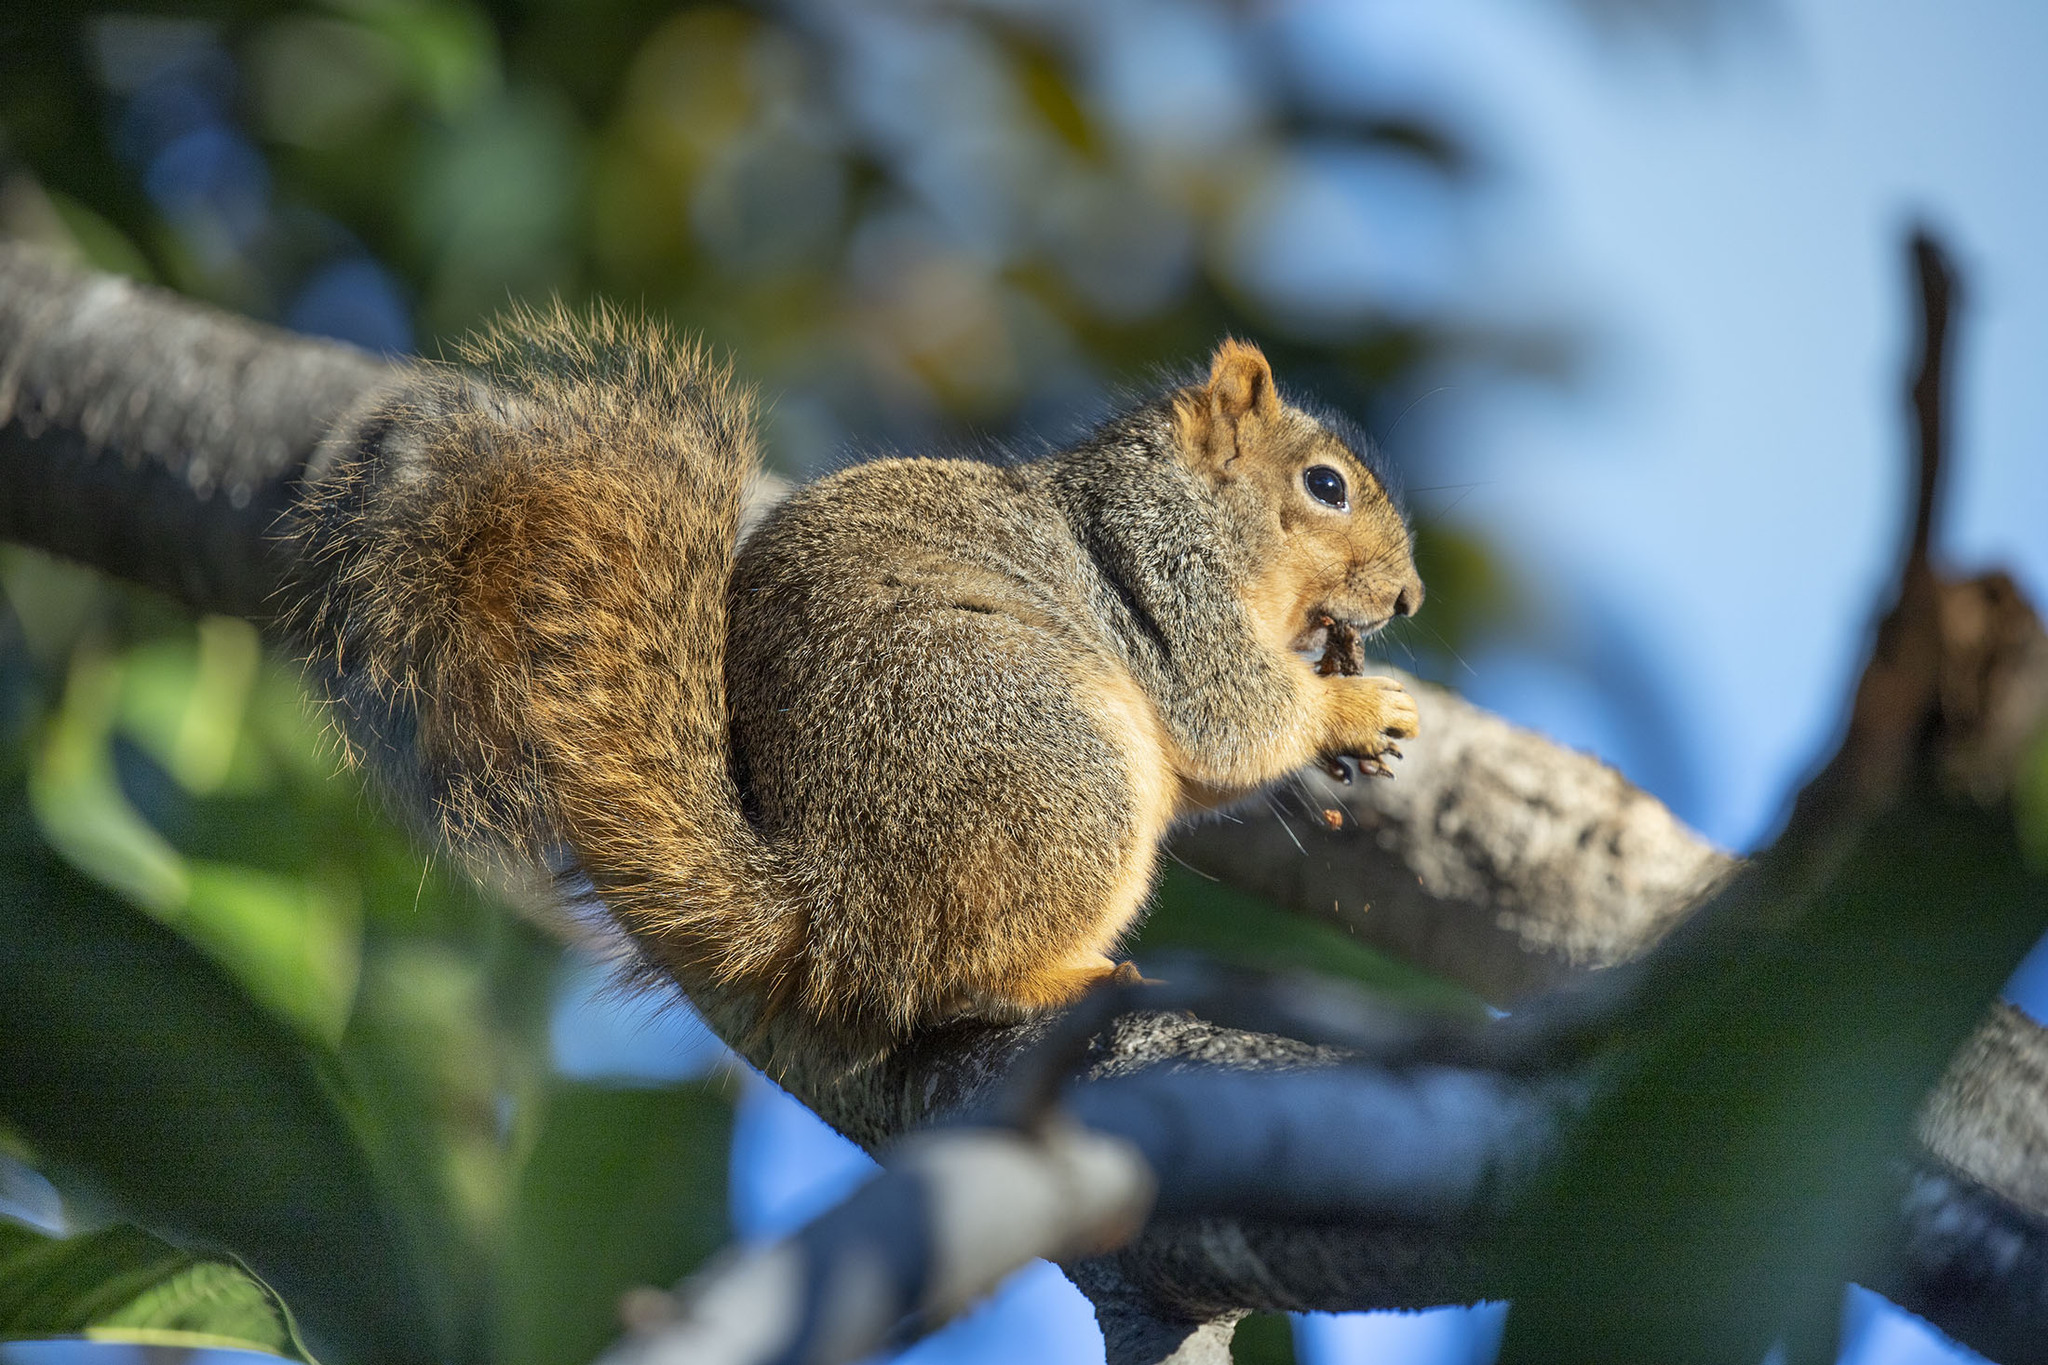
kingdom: Animalia
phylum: Chordata
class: Mammalia
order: Rodentia
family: Sciuridae
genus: Sciurus
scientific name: Sciurus niger
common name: Fox squirrel
